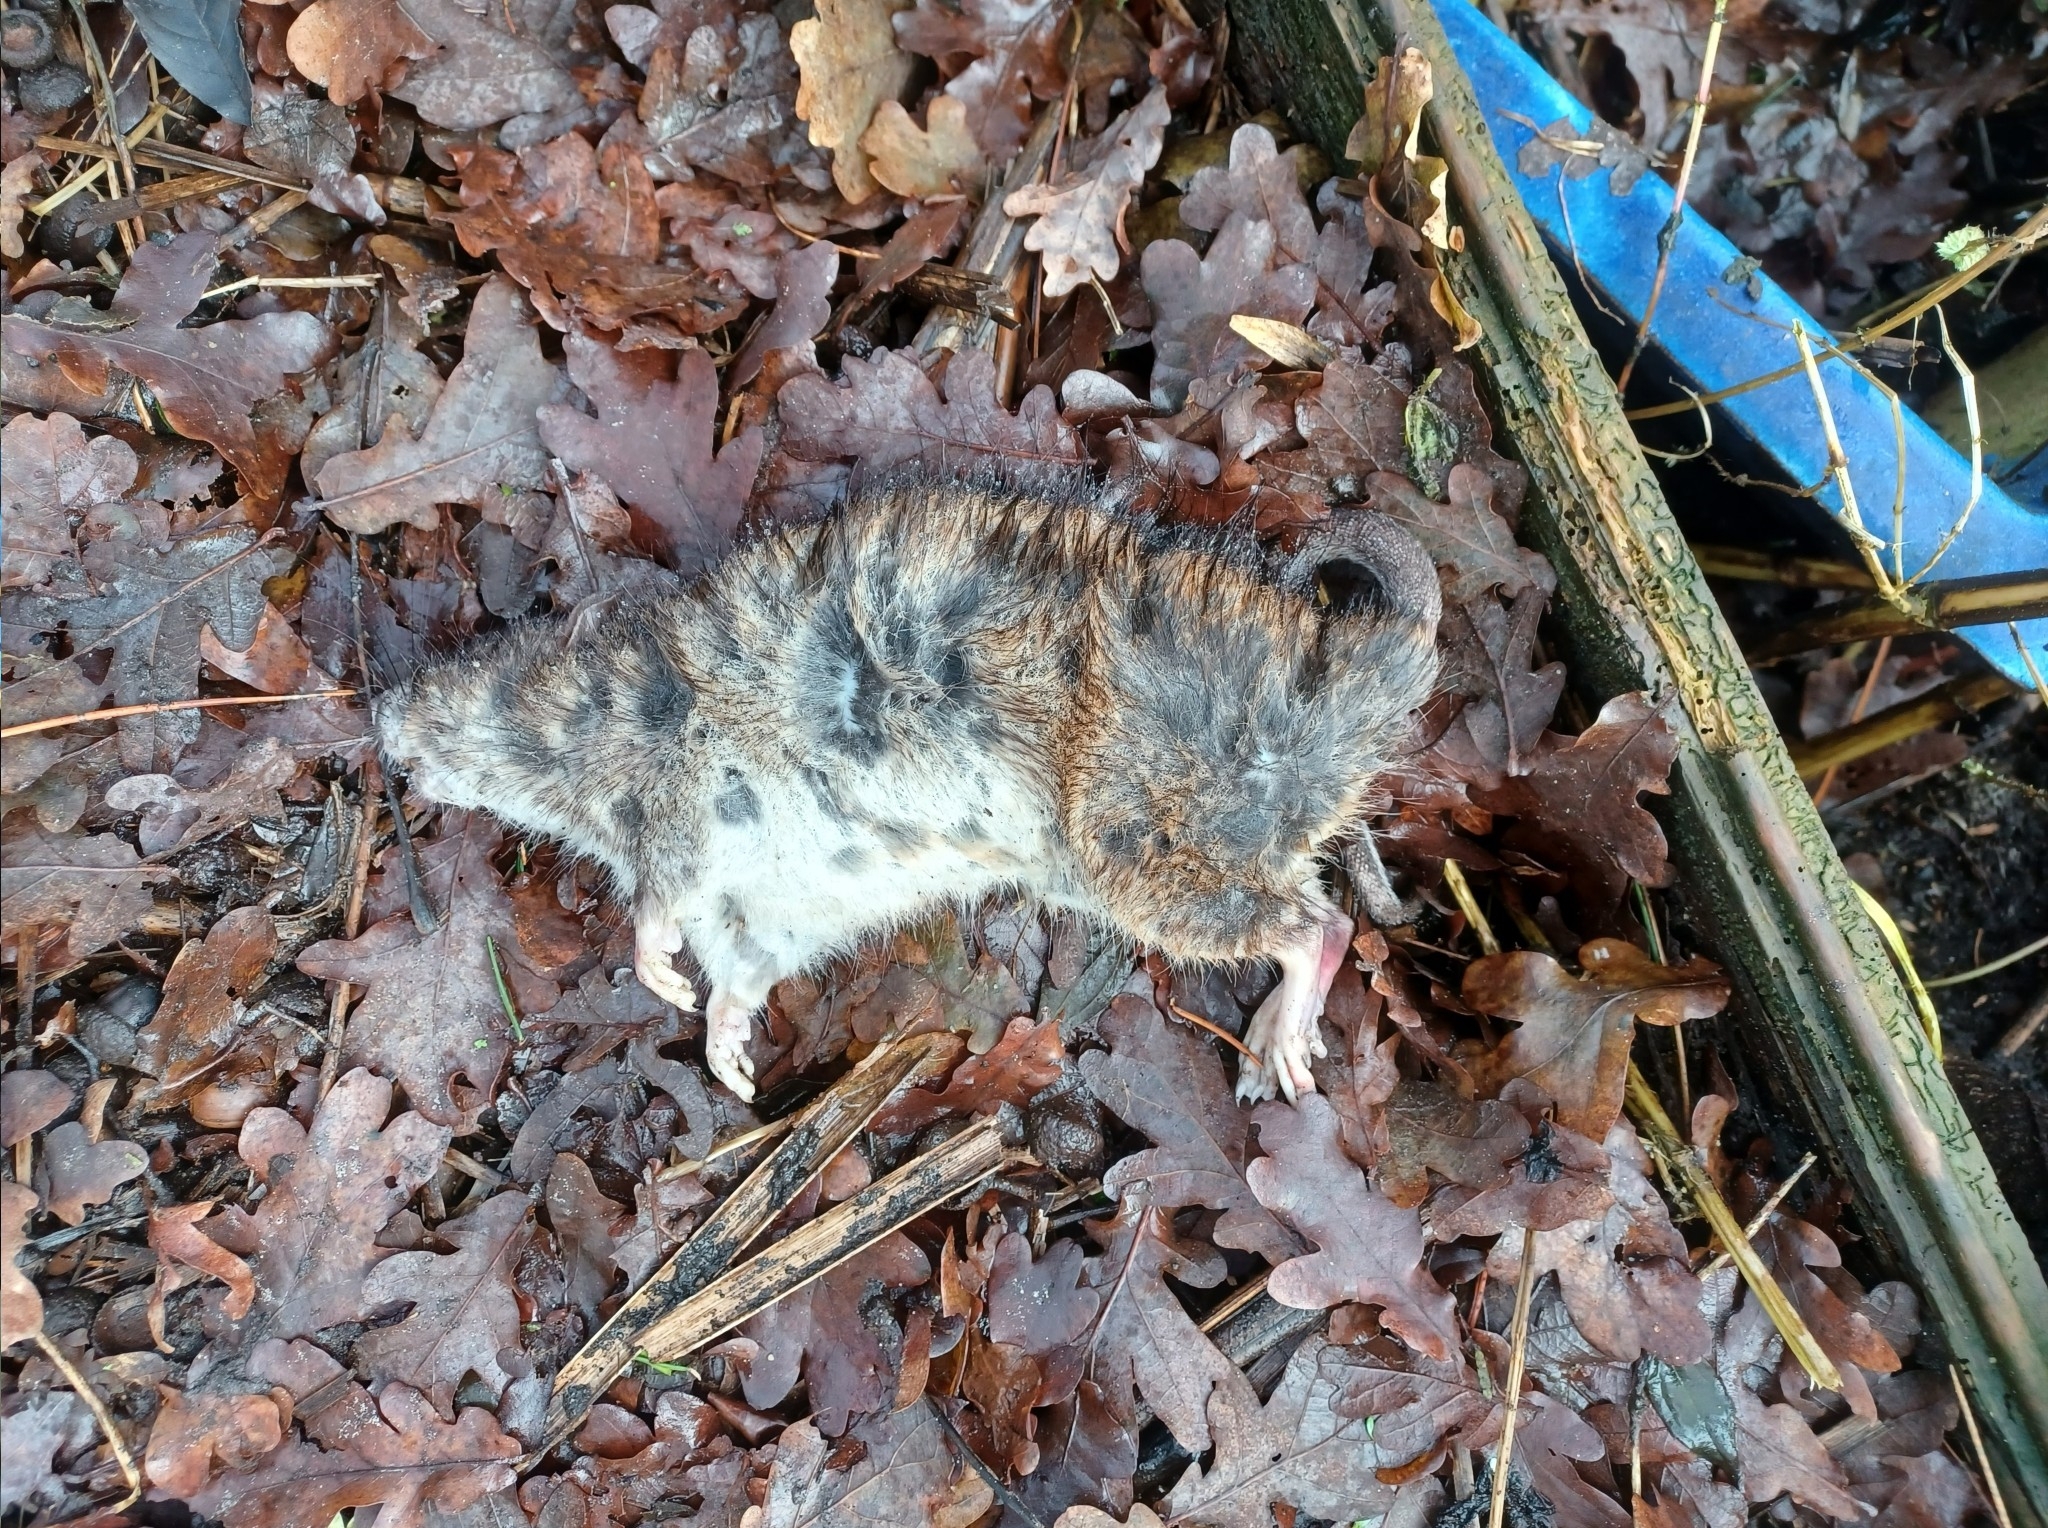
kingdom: Animalia
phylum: Chordata
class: Mammalia
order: Rodentia
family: Muridae
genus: Rattus
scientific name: Rattus norvegicus
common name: Brown rat
